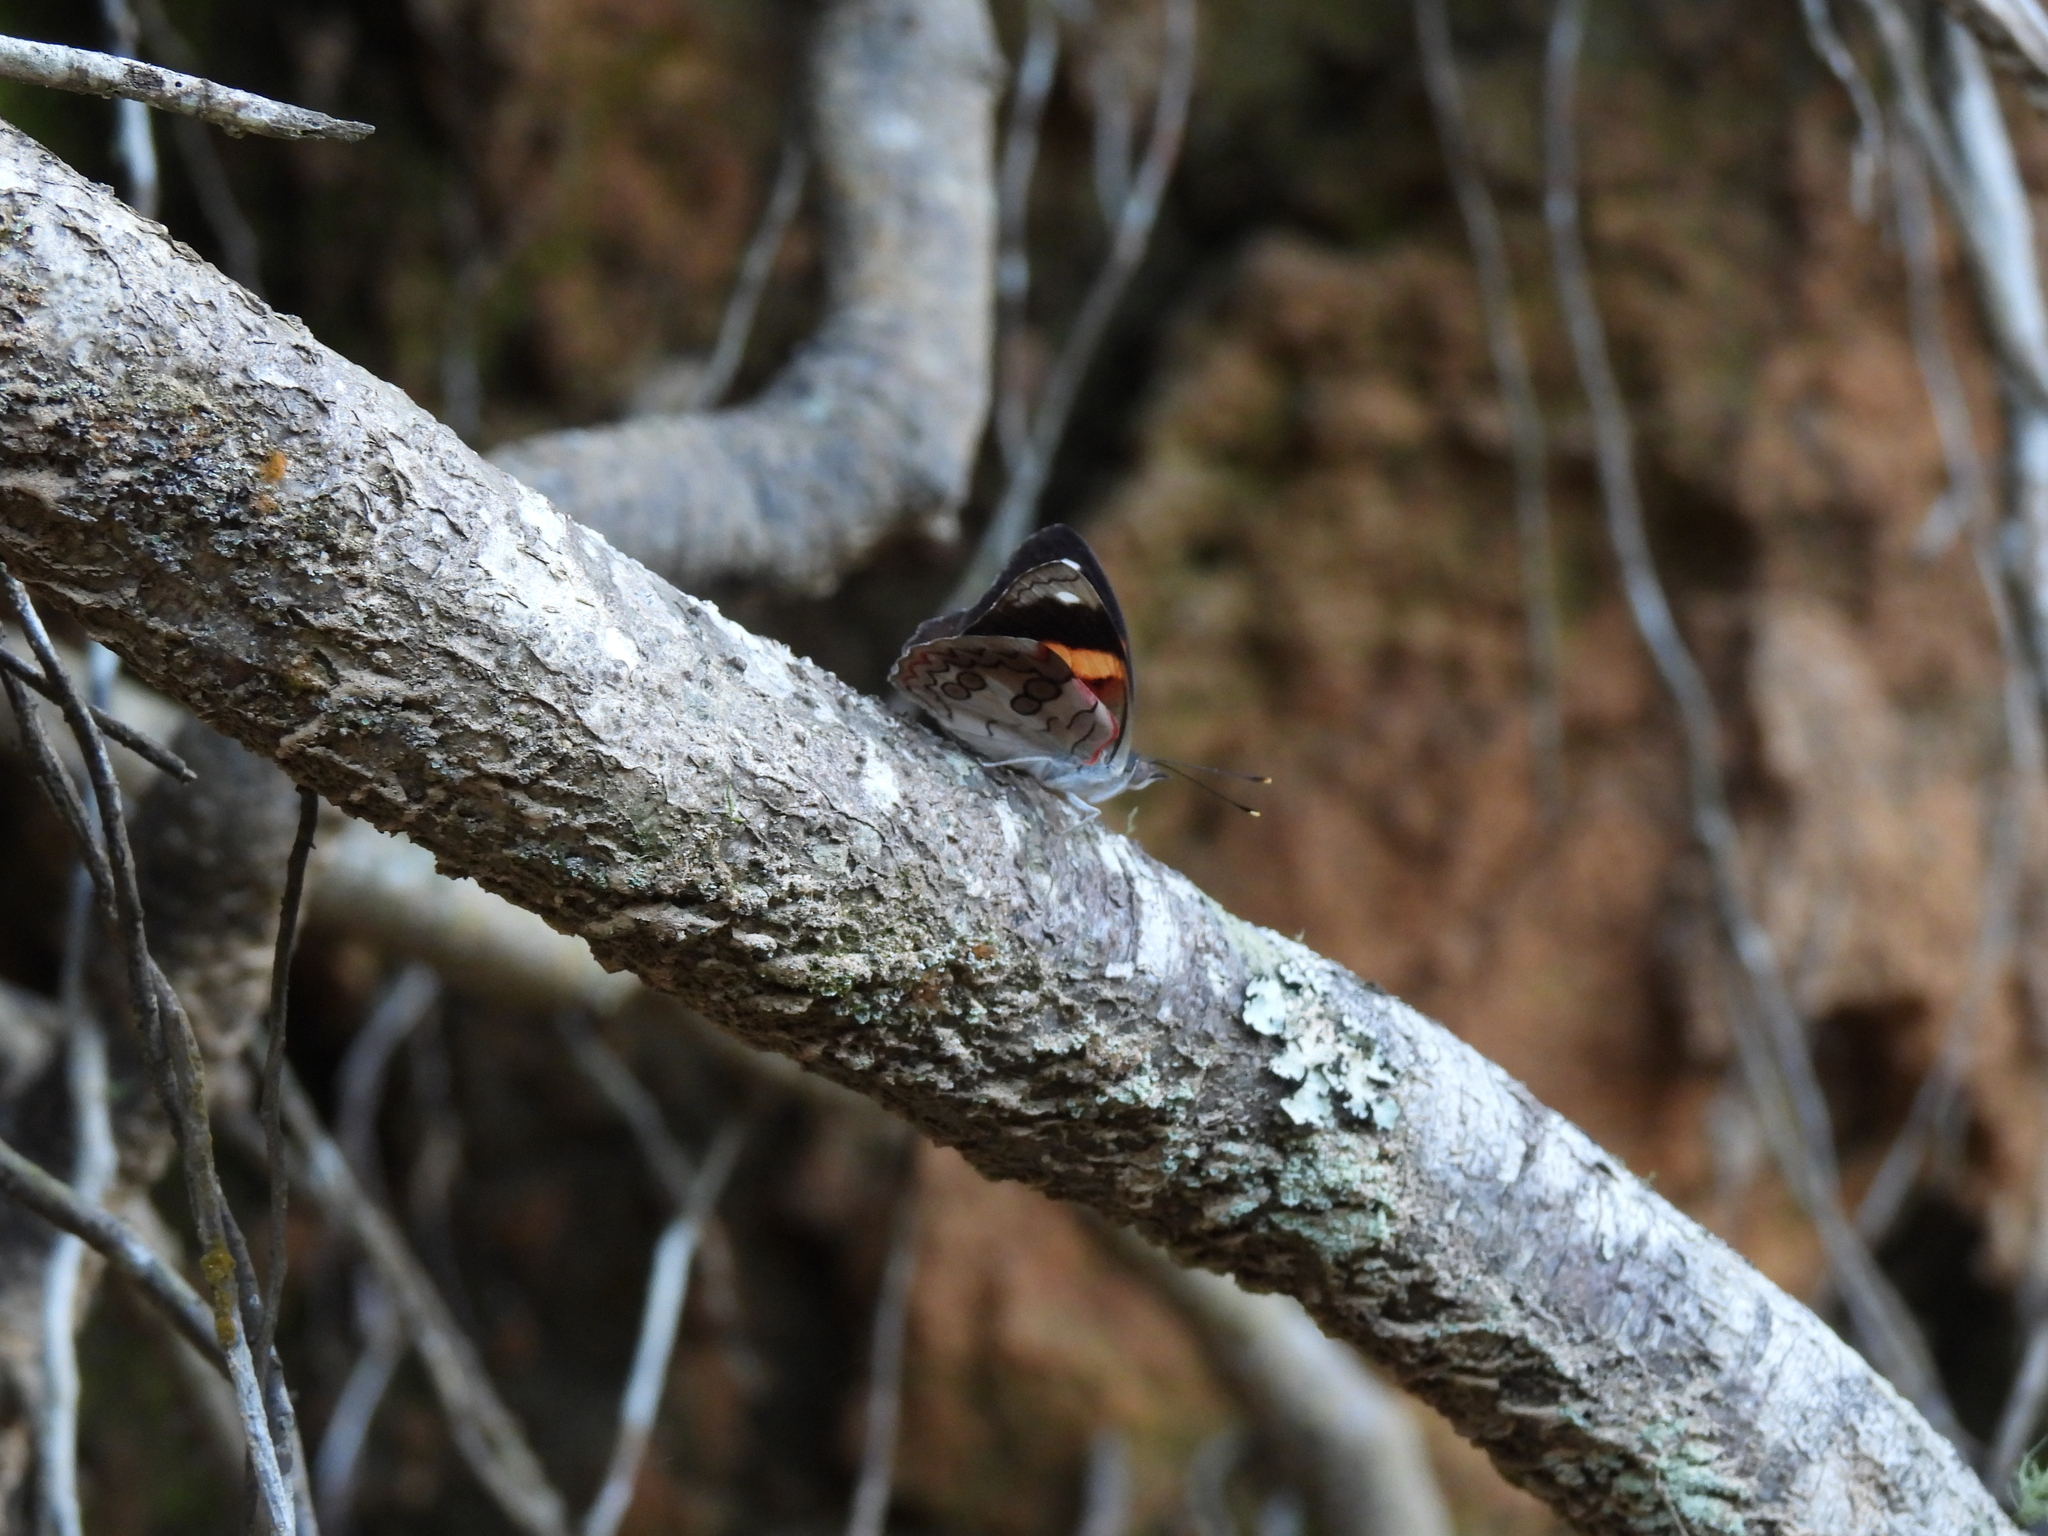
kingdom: Animalia
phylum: Arthropoda
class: Insecta
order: Lepidoptera
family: Nymphalidae
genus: Diaethria
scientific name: Diaethria pandama
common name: Orange-striped eighty-eight
